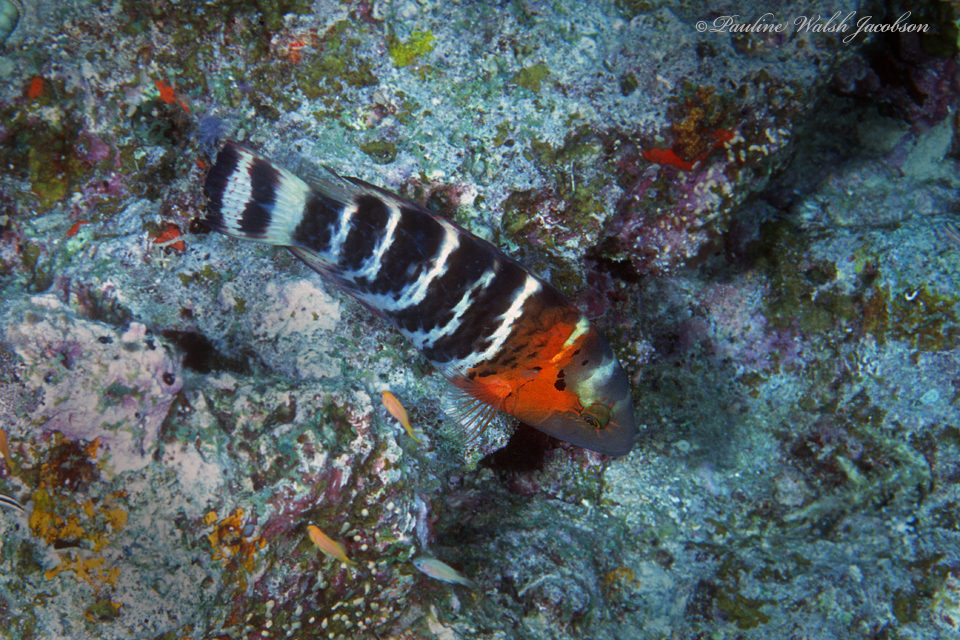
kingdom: Animalia
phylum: Chordata
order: Perciformes
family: Labridae
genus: Cheilinus
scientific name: Cheilinus fasciatus
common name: Red-breasted wrasse
